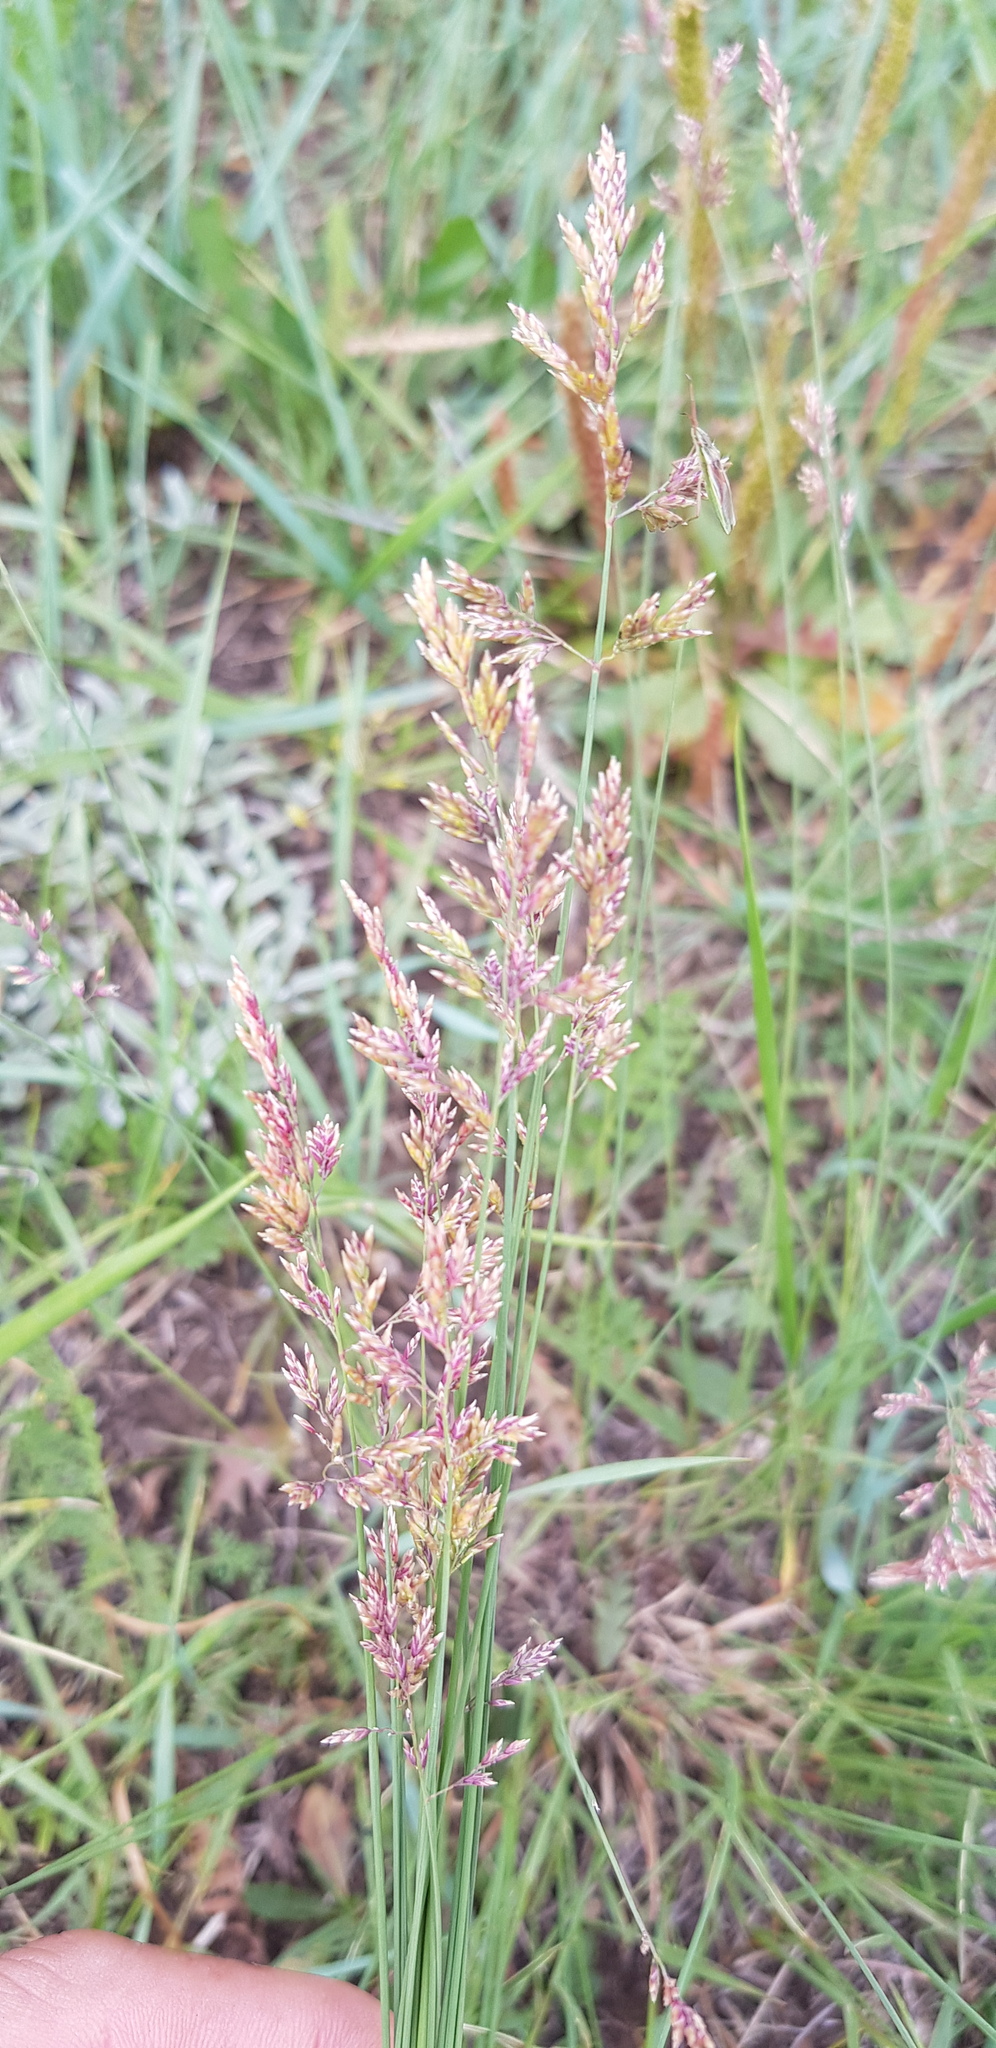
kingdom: Plantae
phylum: Tracheophyta
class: Liliopsida
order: Poales
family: Poaceae
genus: Puccinellia
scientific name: Puccinellia distans
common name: Weeping alkaligrass
